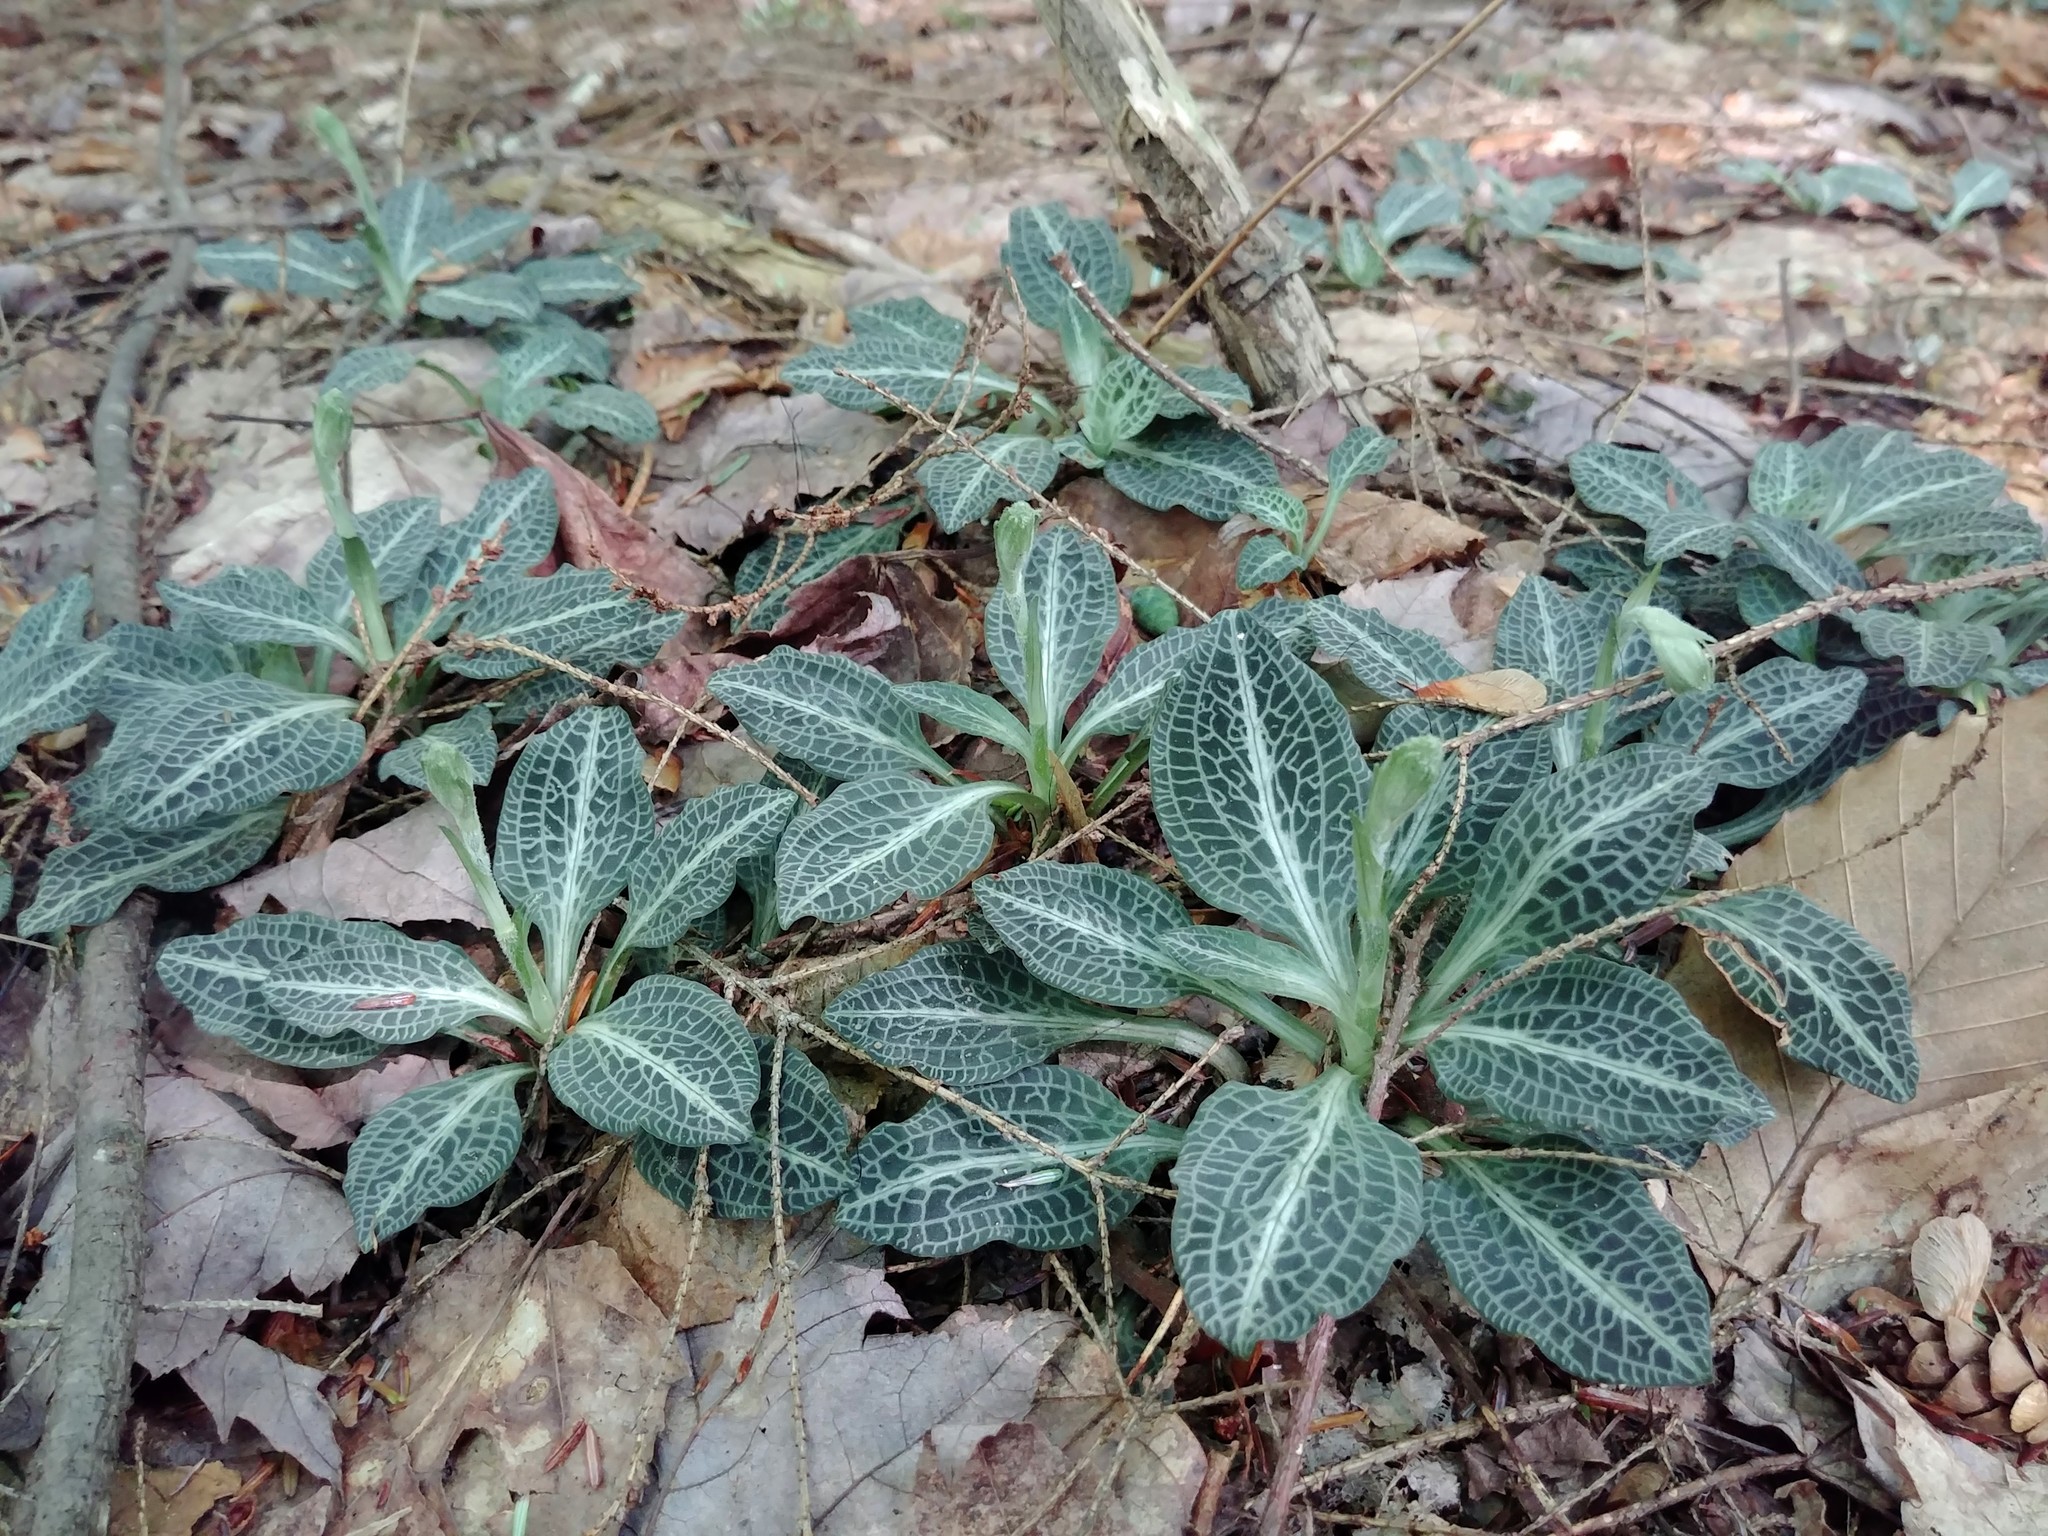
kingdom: Plantae
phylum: Tracheophyta
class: Liliopsida
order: Asparagales
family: Orchidaceae
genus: Goodyera
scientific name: Goodyera pubescens
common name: Downy rattlesnake-plantain
